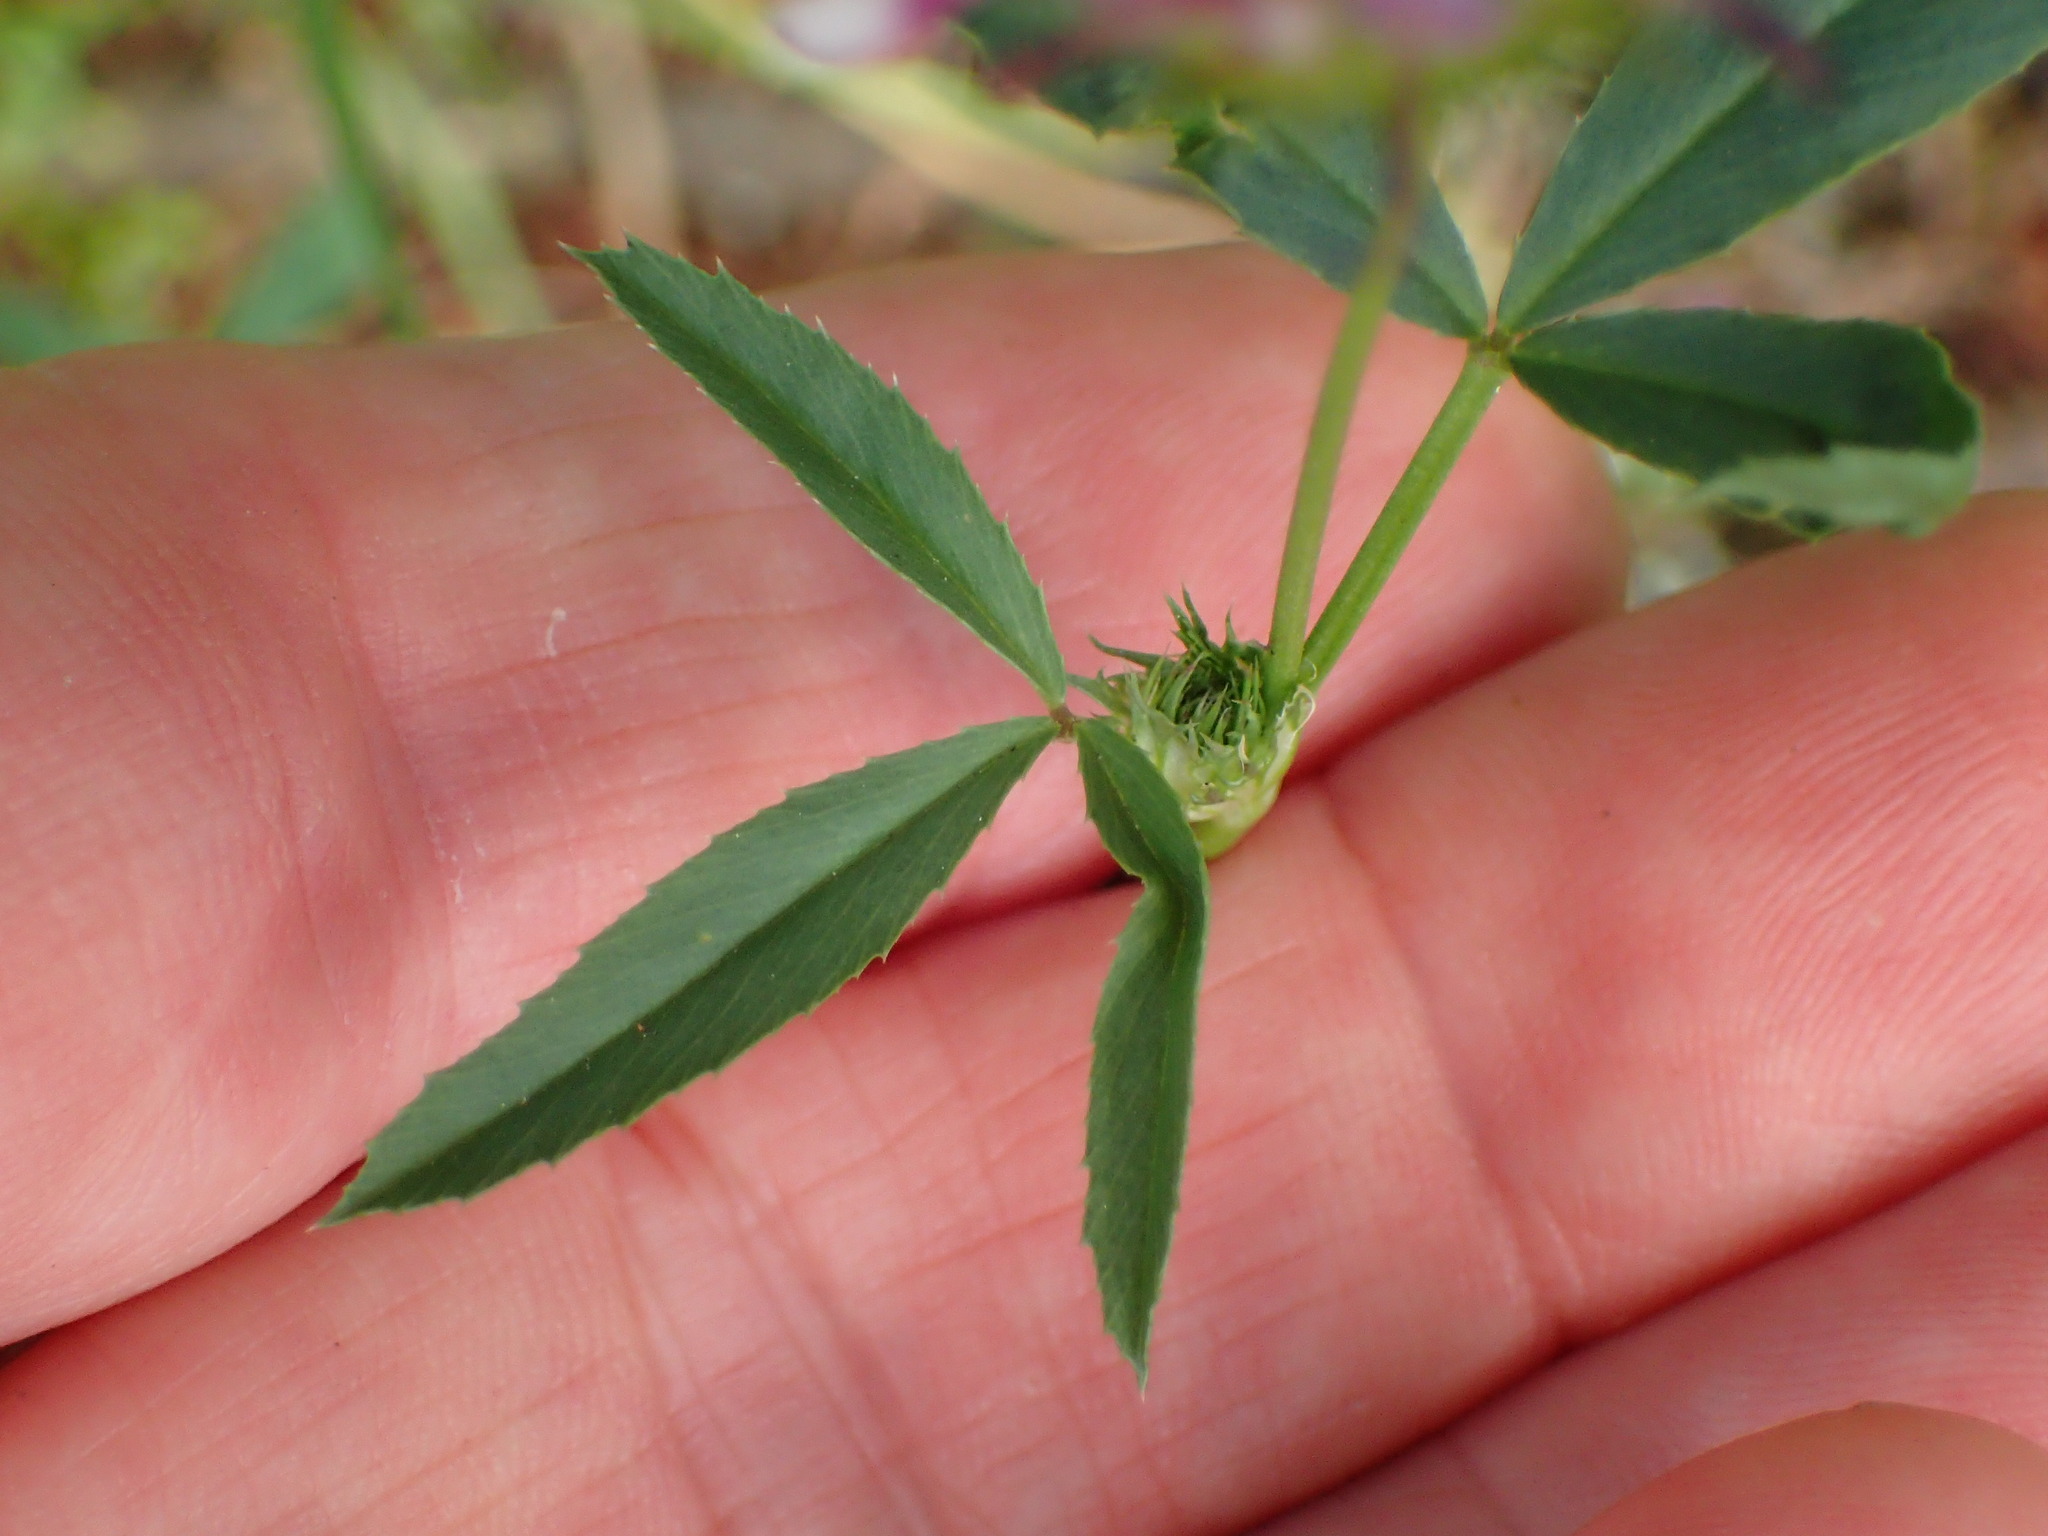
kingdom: Plantae
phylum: Tracheophyta
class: Magnoliopsida
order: Fabales
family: Fabaceae
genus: Trifolium
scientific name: Trifolium willdenovii
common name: Tomcat clover
